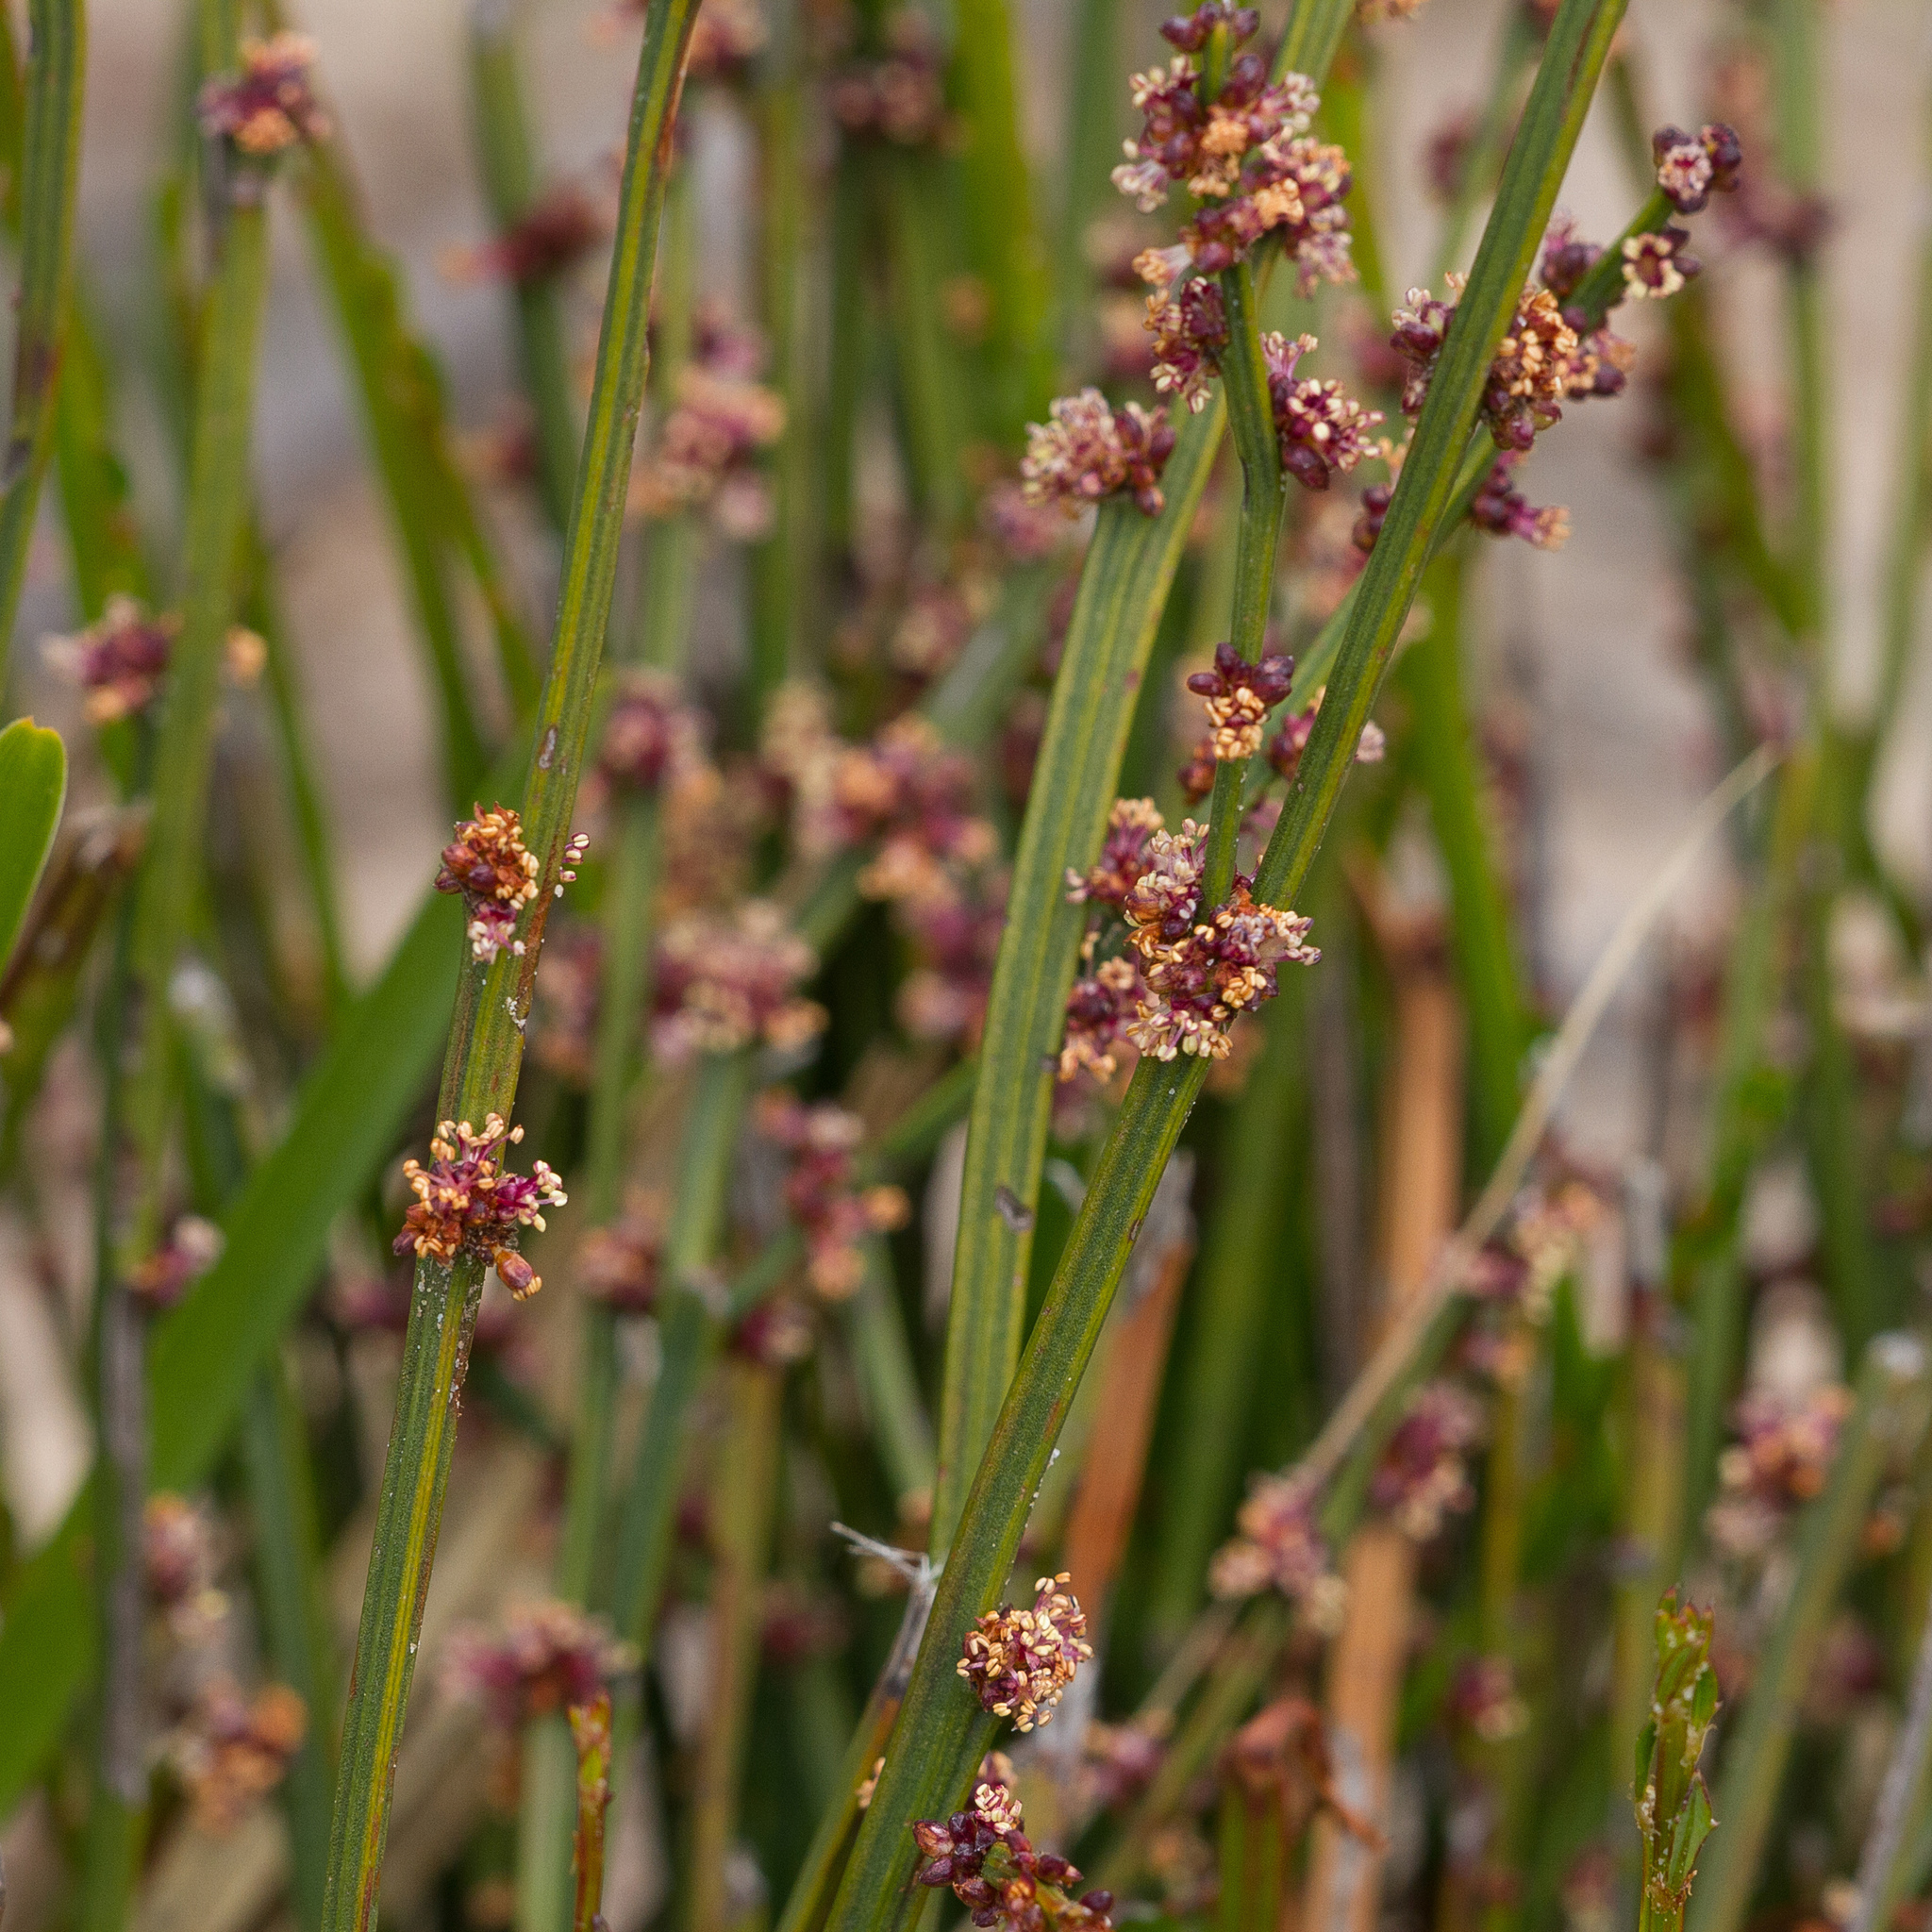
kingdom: Plantae
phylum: Tracheophyta
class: Magnoliopsida
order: Malpighiales
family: Euphorbiaceae
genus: Amperea
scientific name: Amperea xiphoclada
